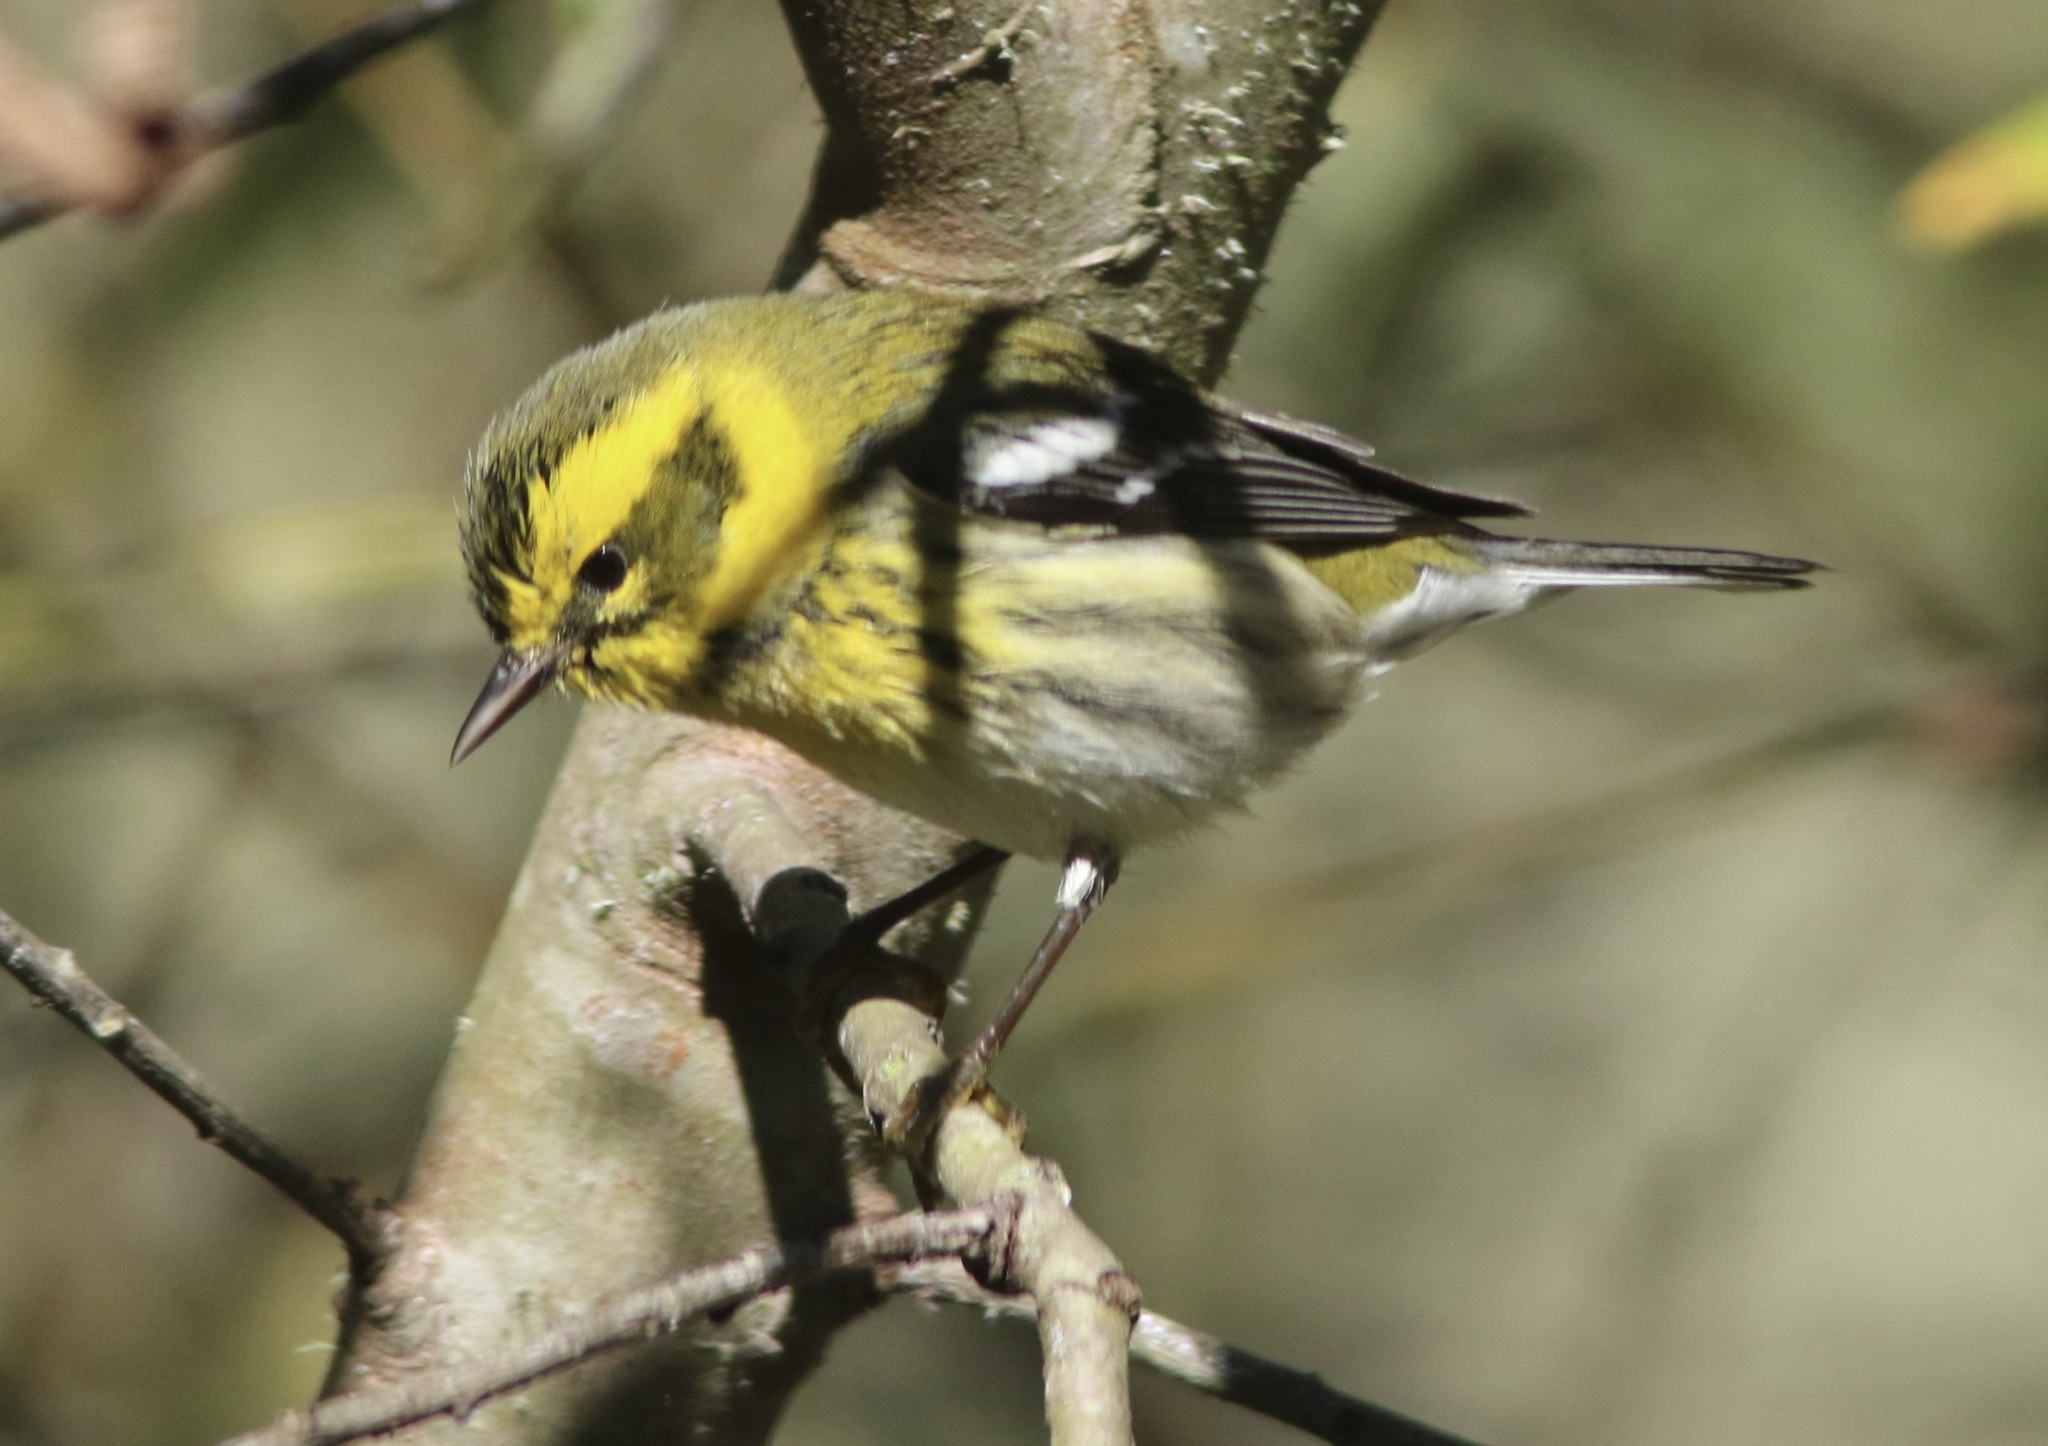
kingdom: Animalia
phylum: Chordata
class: Aves
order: Passeriformes
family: Parulidae
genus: Setophaga
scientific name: Setophaga townsendi
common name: Townsend's warbler
